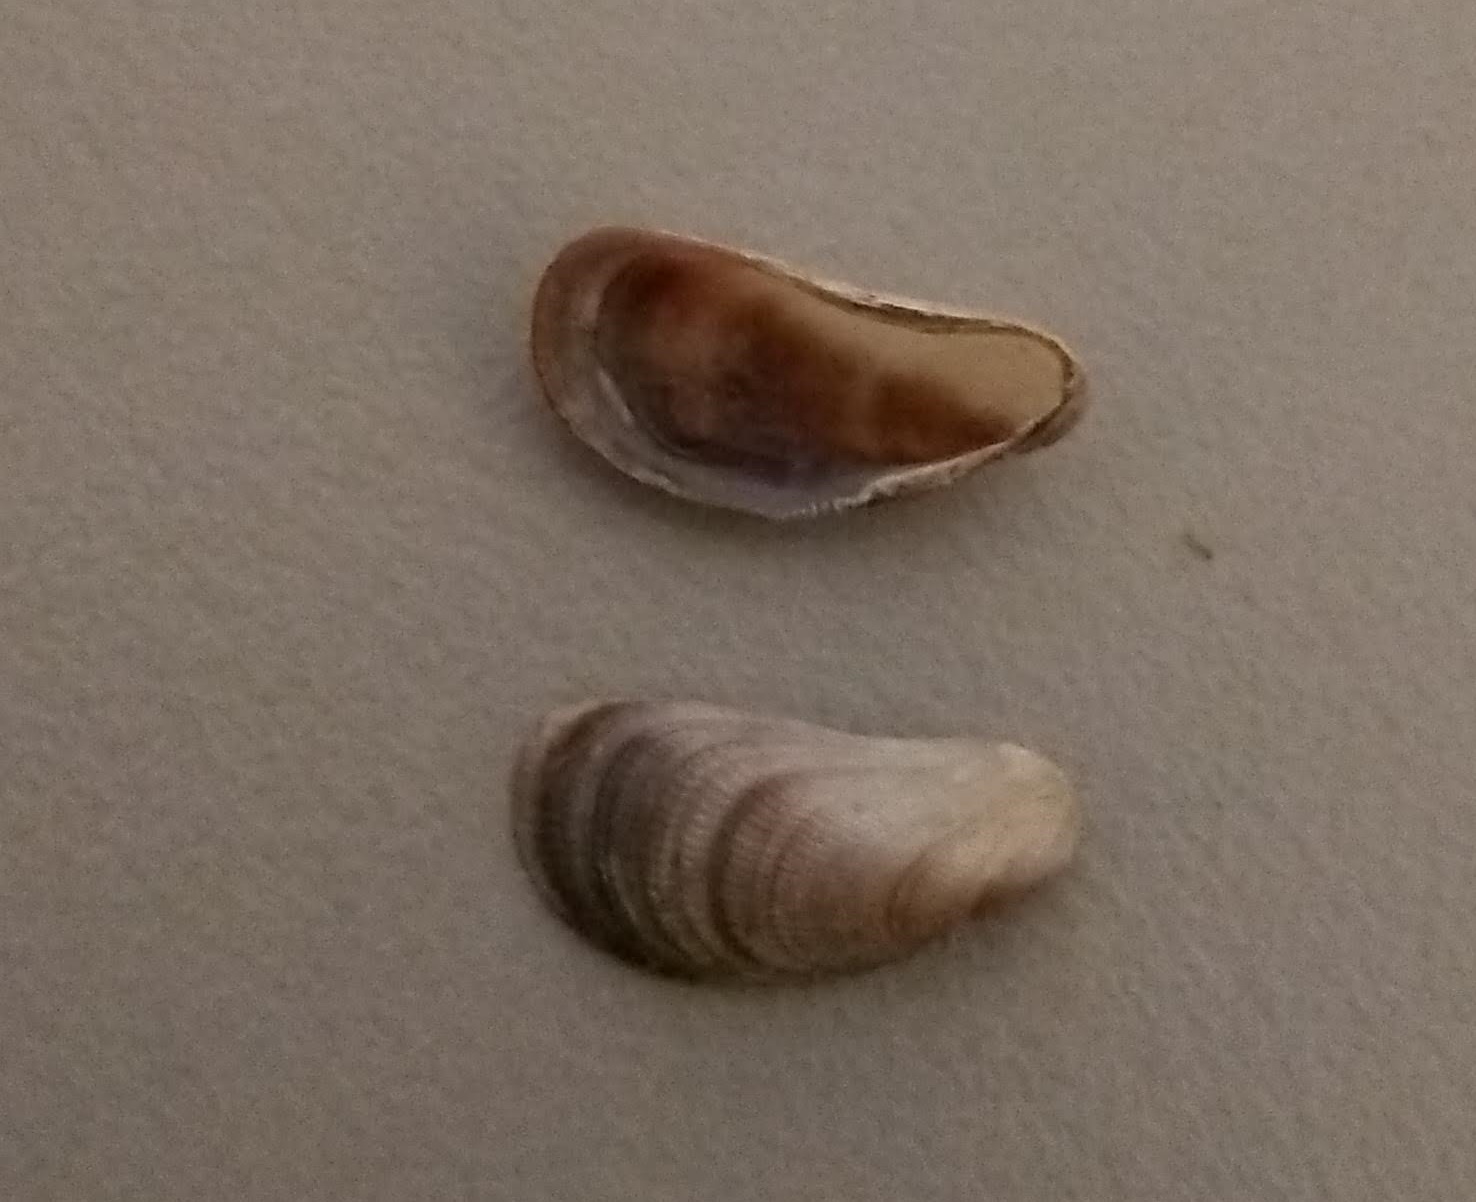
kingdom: Animalia
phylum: Mollusca
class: Bivalvia
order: Mytilida
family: Mytilidae
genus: Brachidontes
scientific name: Brachidontes exustus
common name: Scorched mussel
